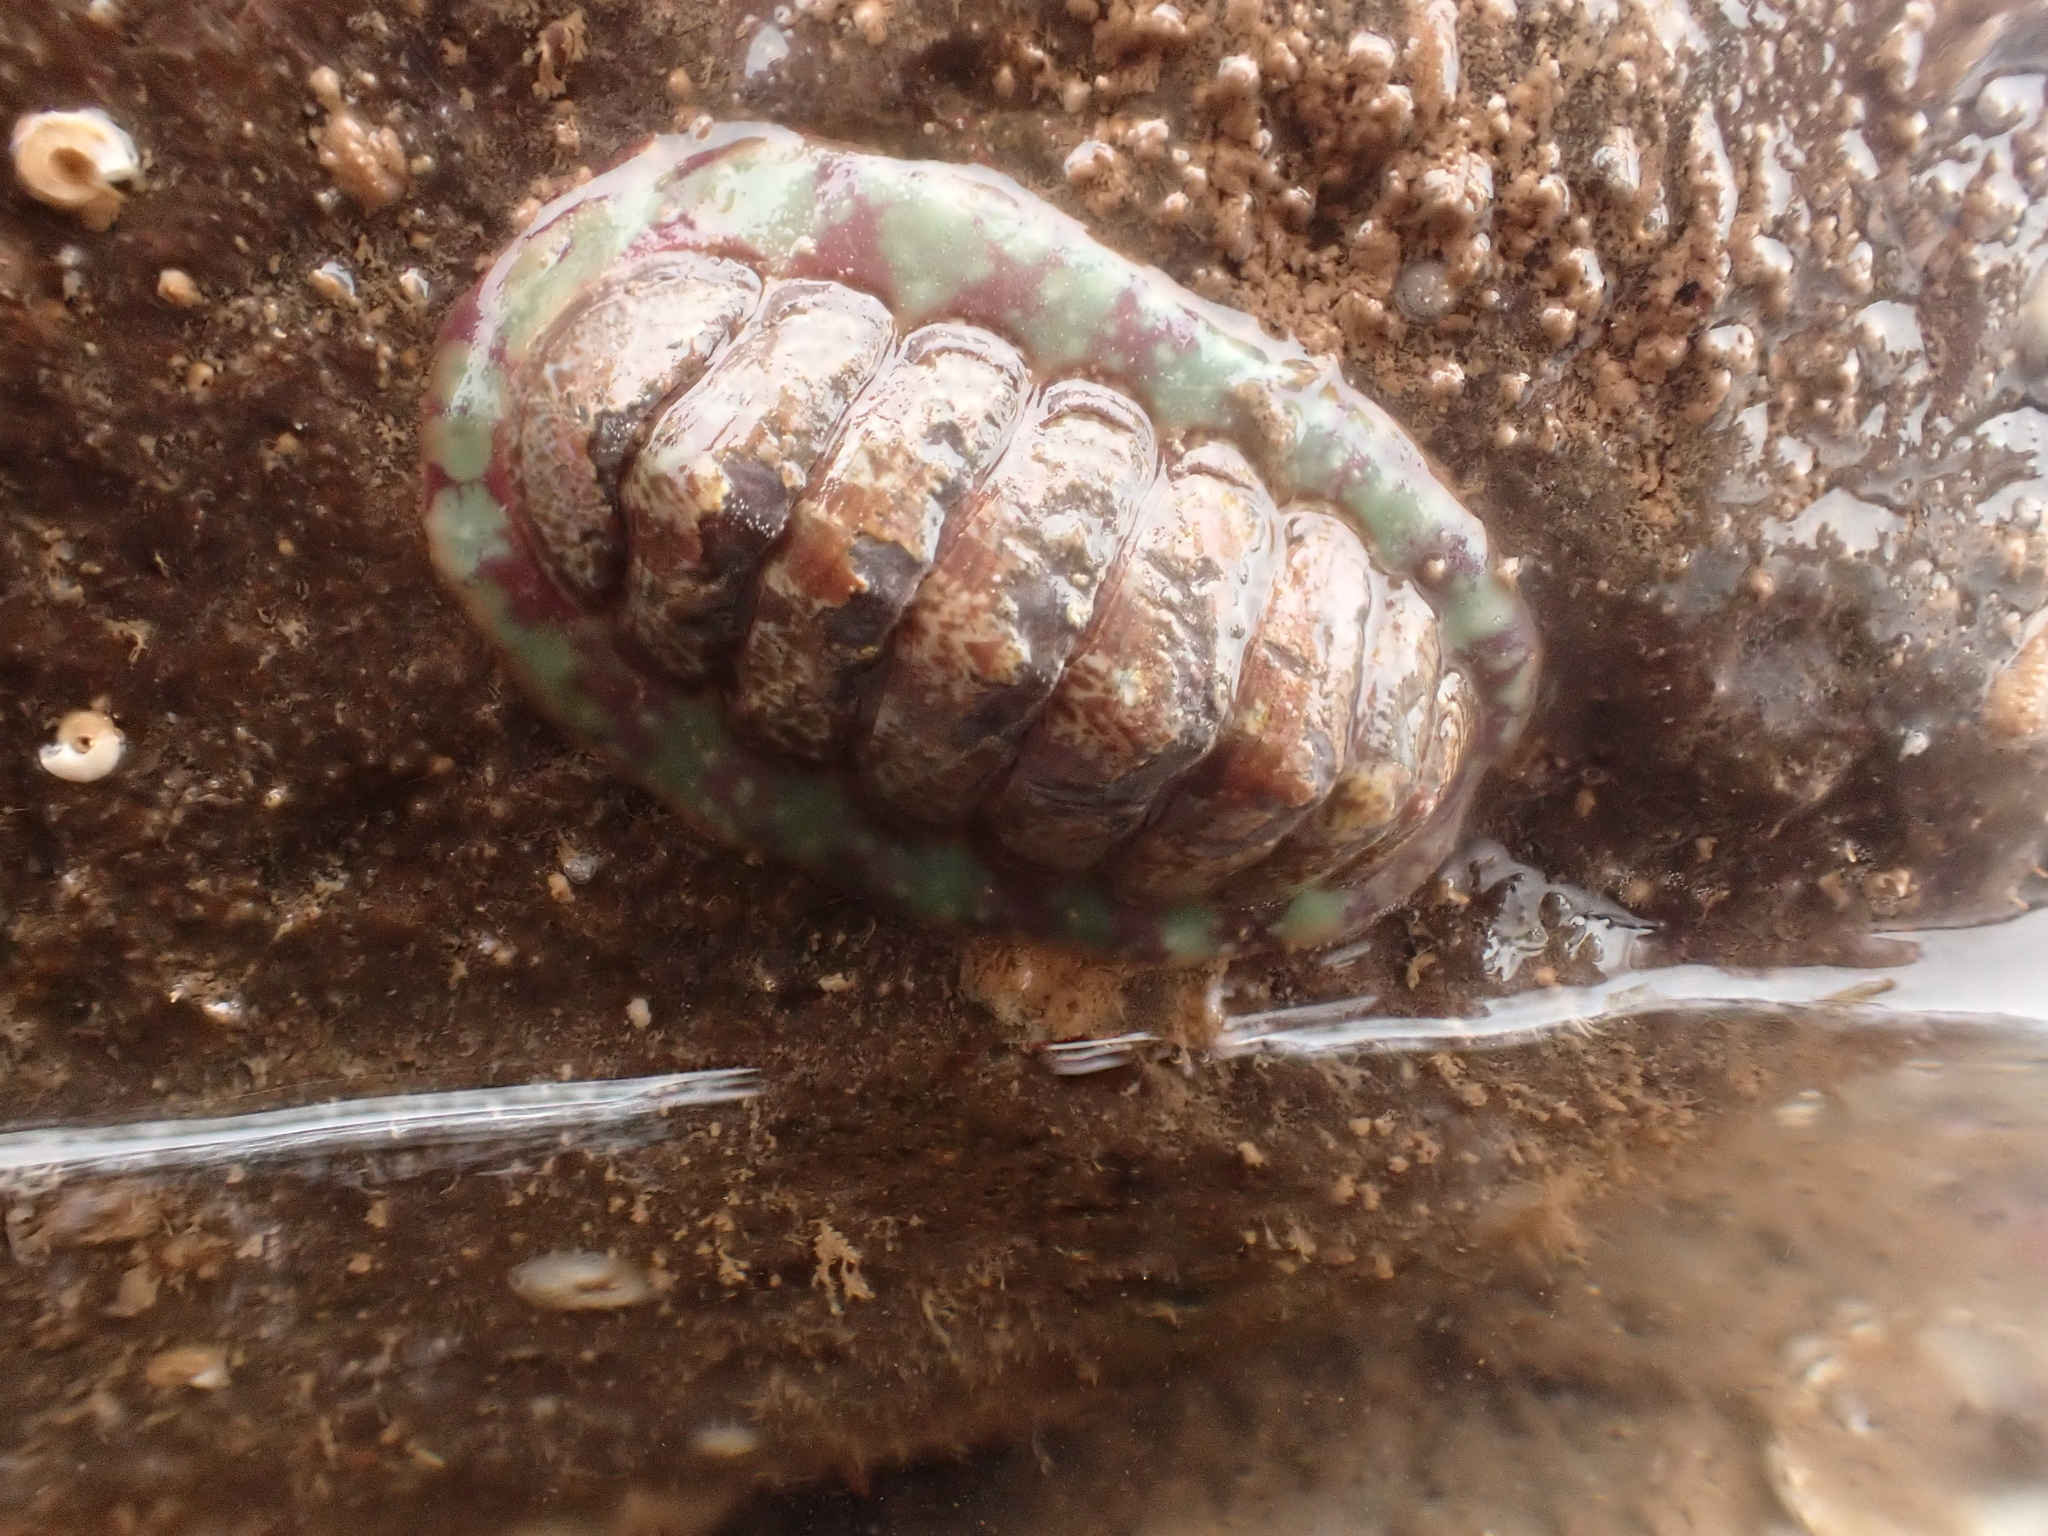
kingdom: Animalia
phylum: Mollusca
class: Polyplacophora
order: Chitonida
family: Tonicellidae
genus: Tonicella
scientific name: Tonicella marmorea
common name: Lined red chiton
